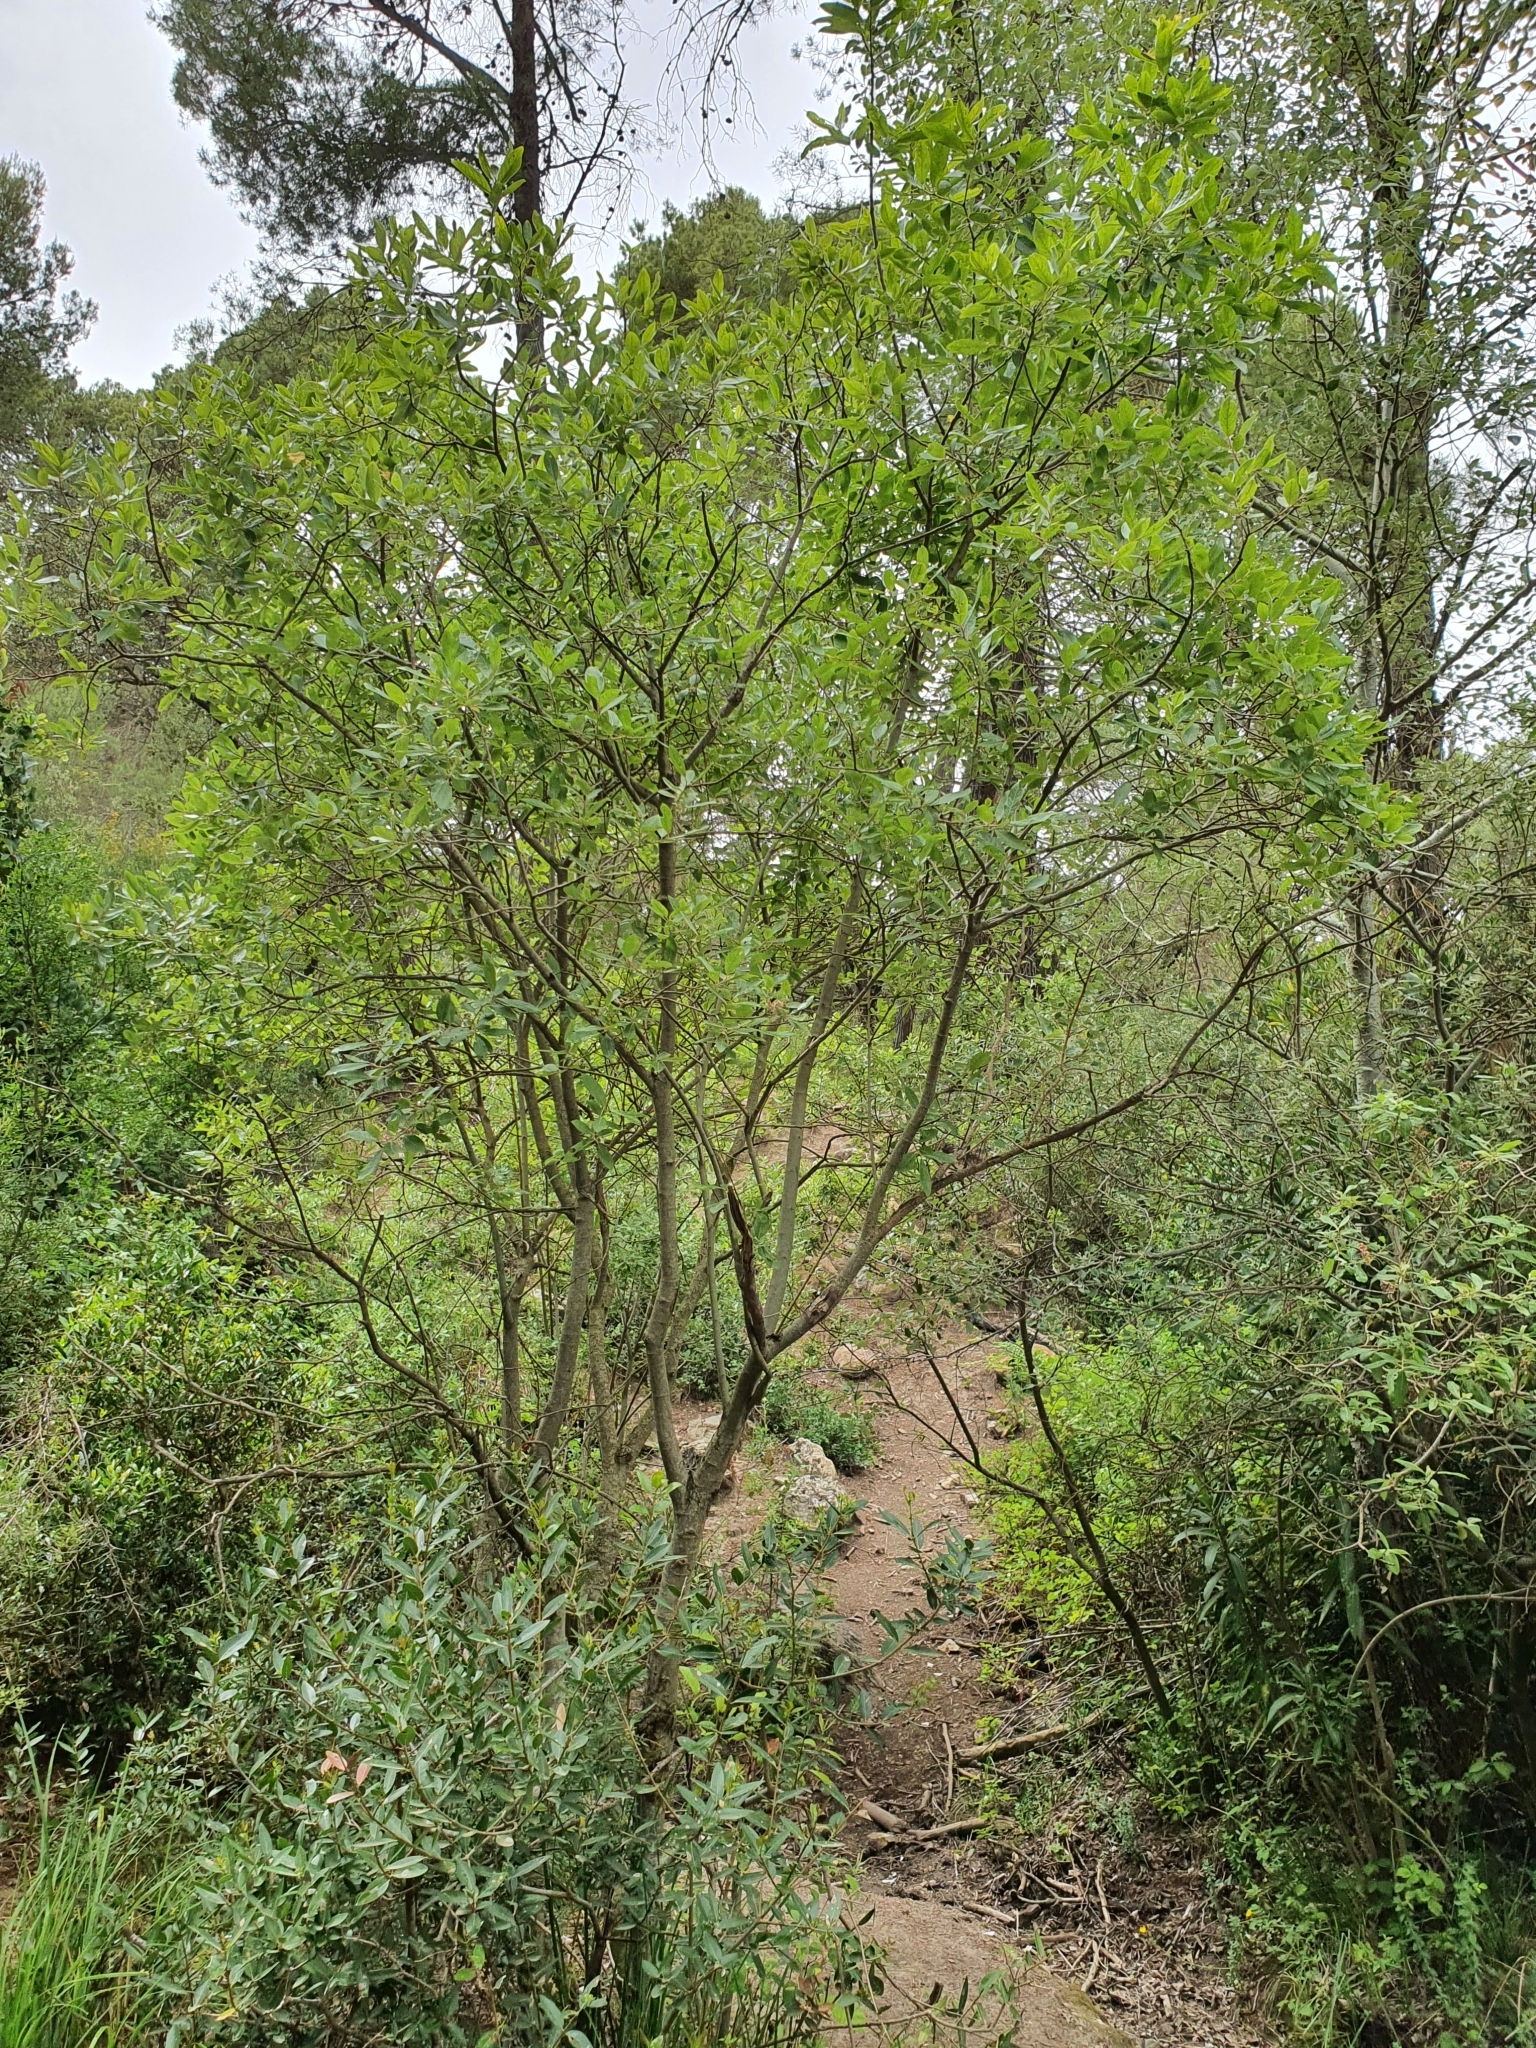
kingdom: Plantae
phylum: Tracheophyta
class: Magnoliopsida
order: Malpighiales
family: Salicaceae
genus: Salix
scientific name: Salix pedicellata
